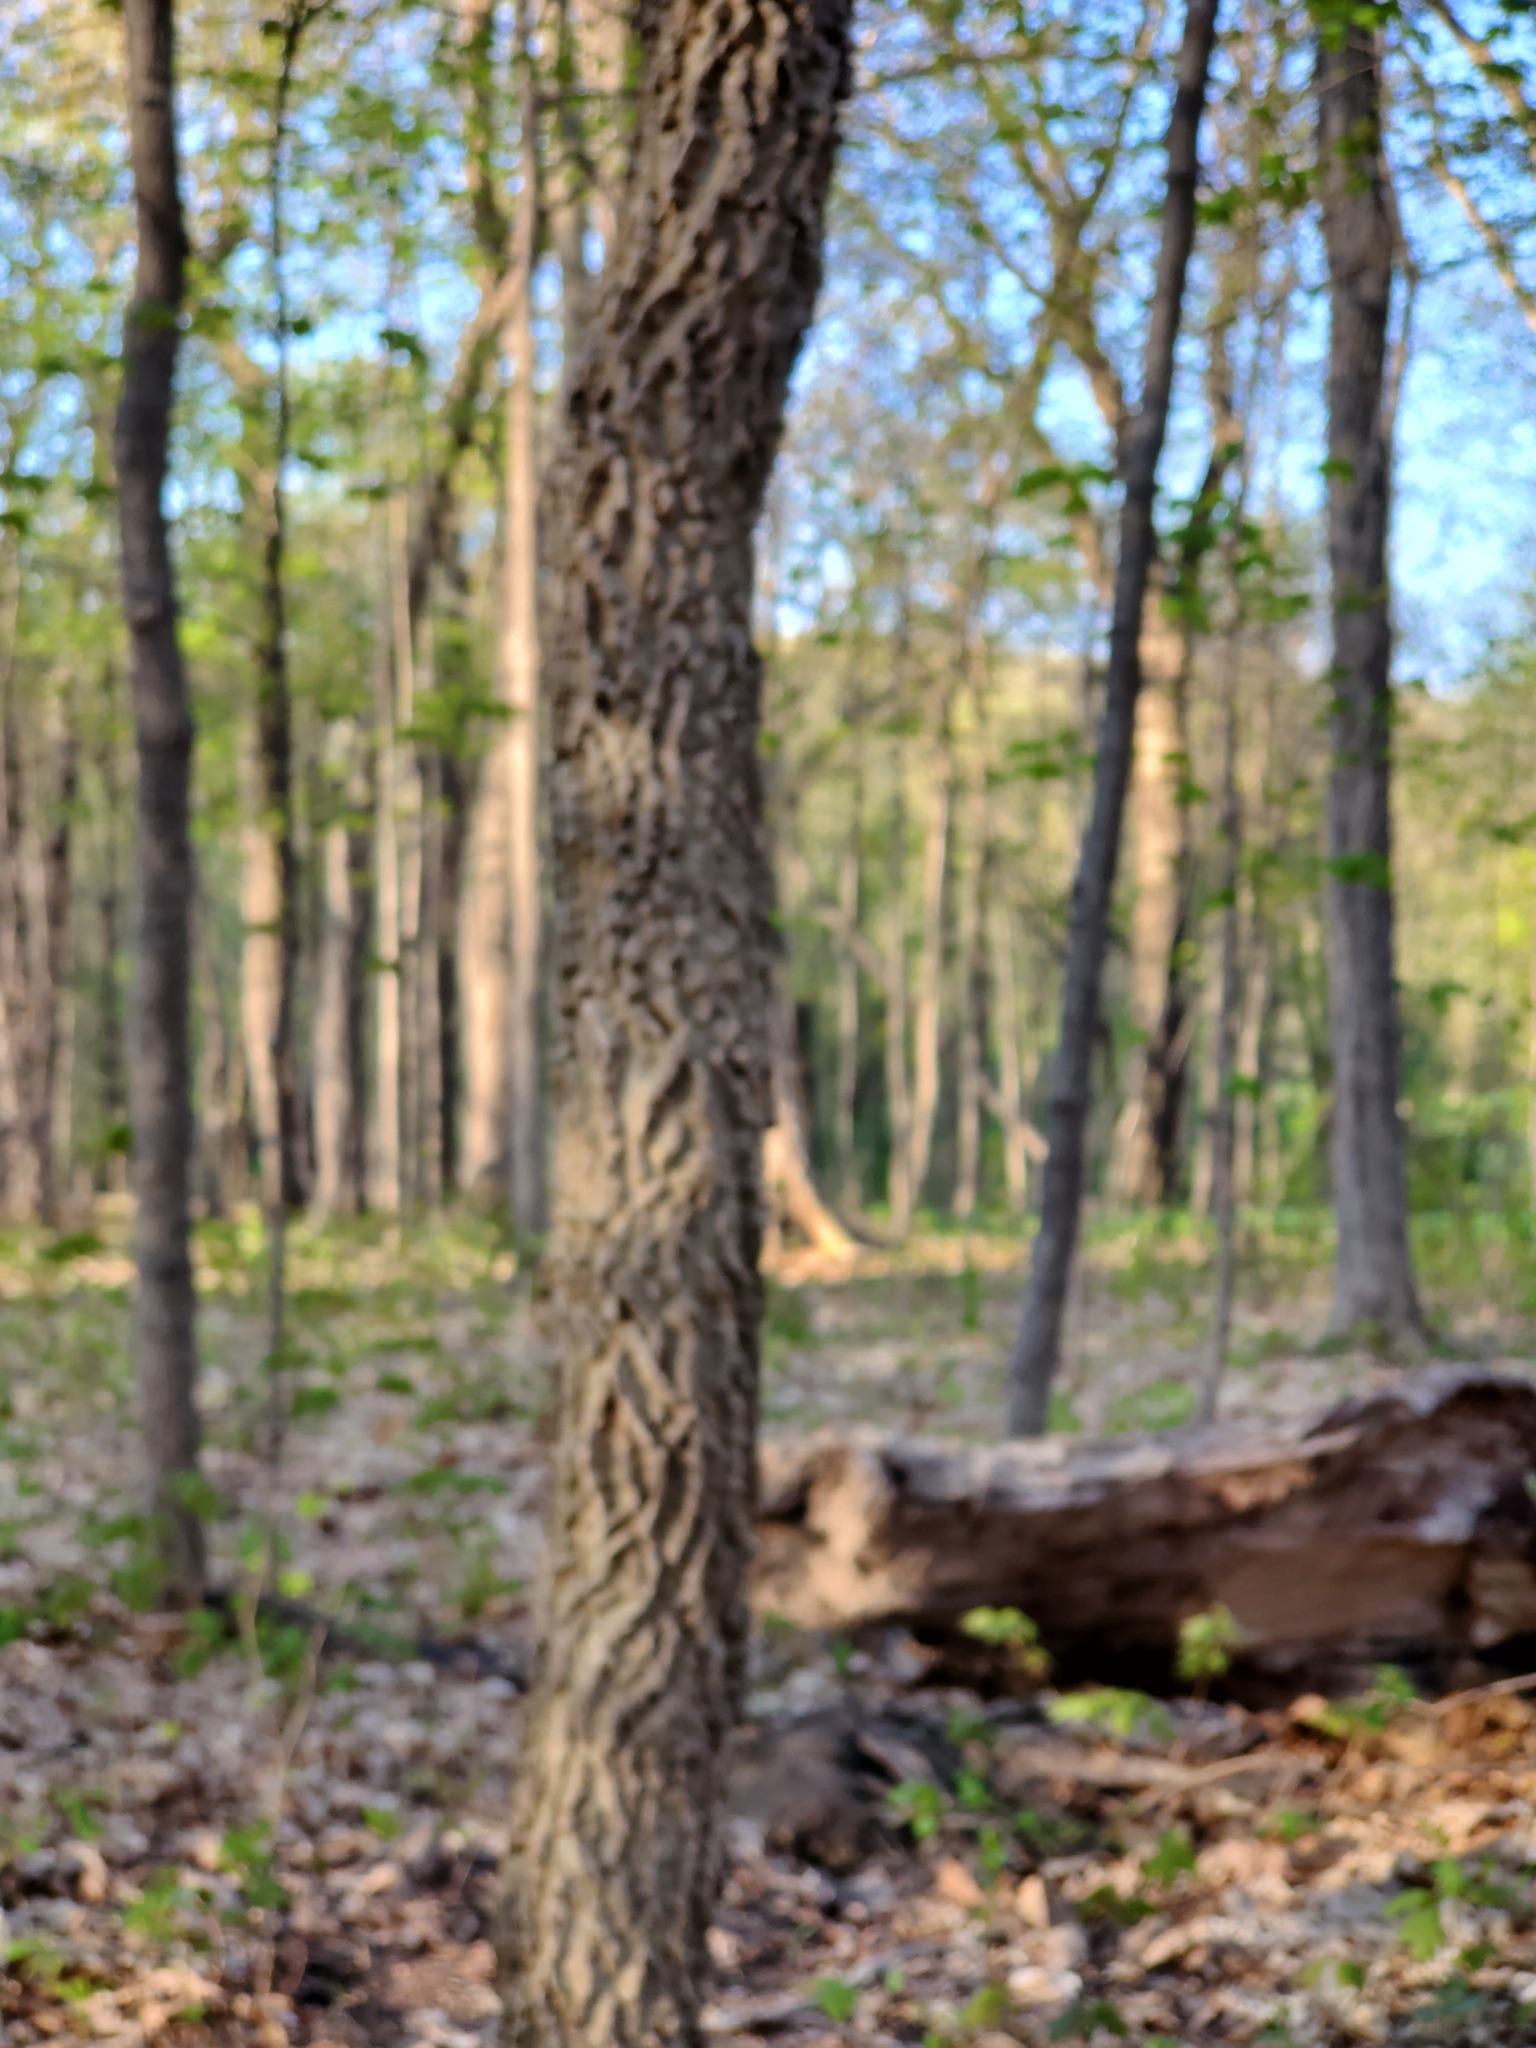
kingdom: Plantae
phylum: Tracheophyta
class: Magnoliopsida
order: Rosales
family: Cannabaceae
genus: Celtis
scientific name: Celtis occidentalis
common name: Common hackberry
